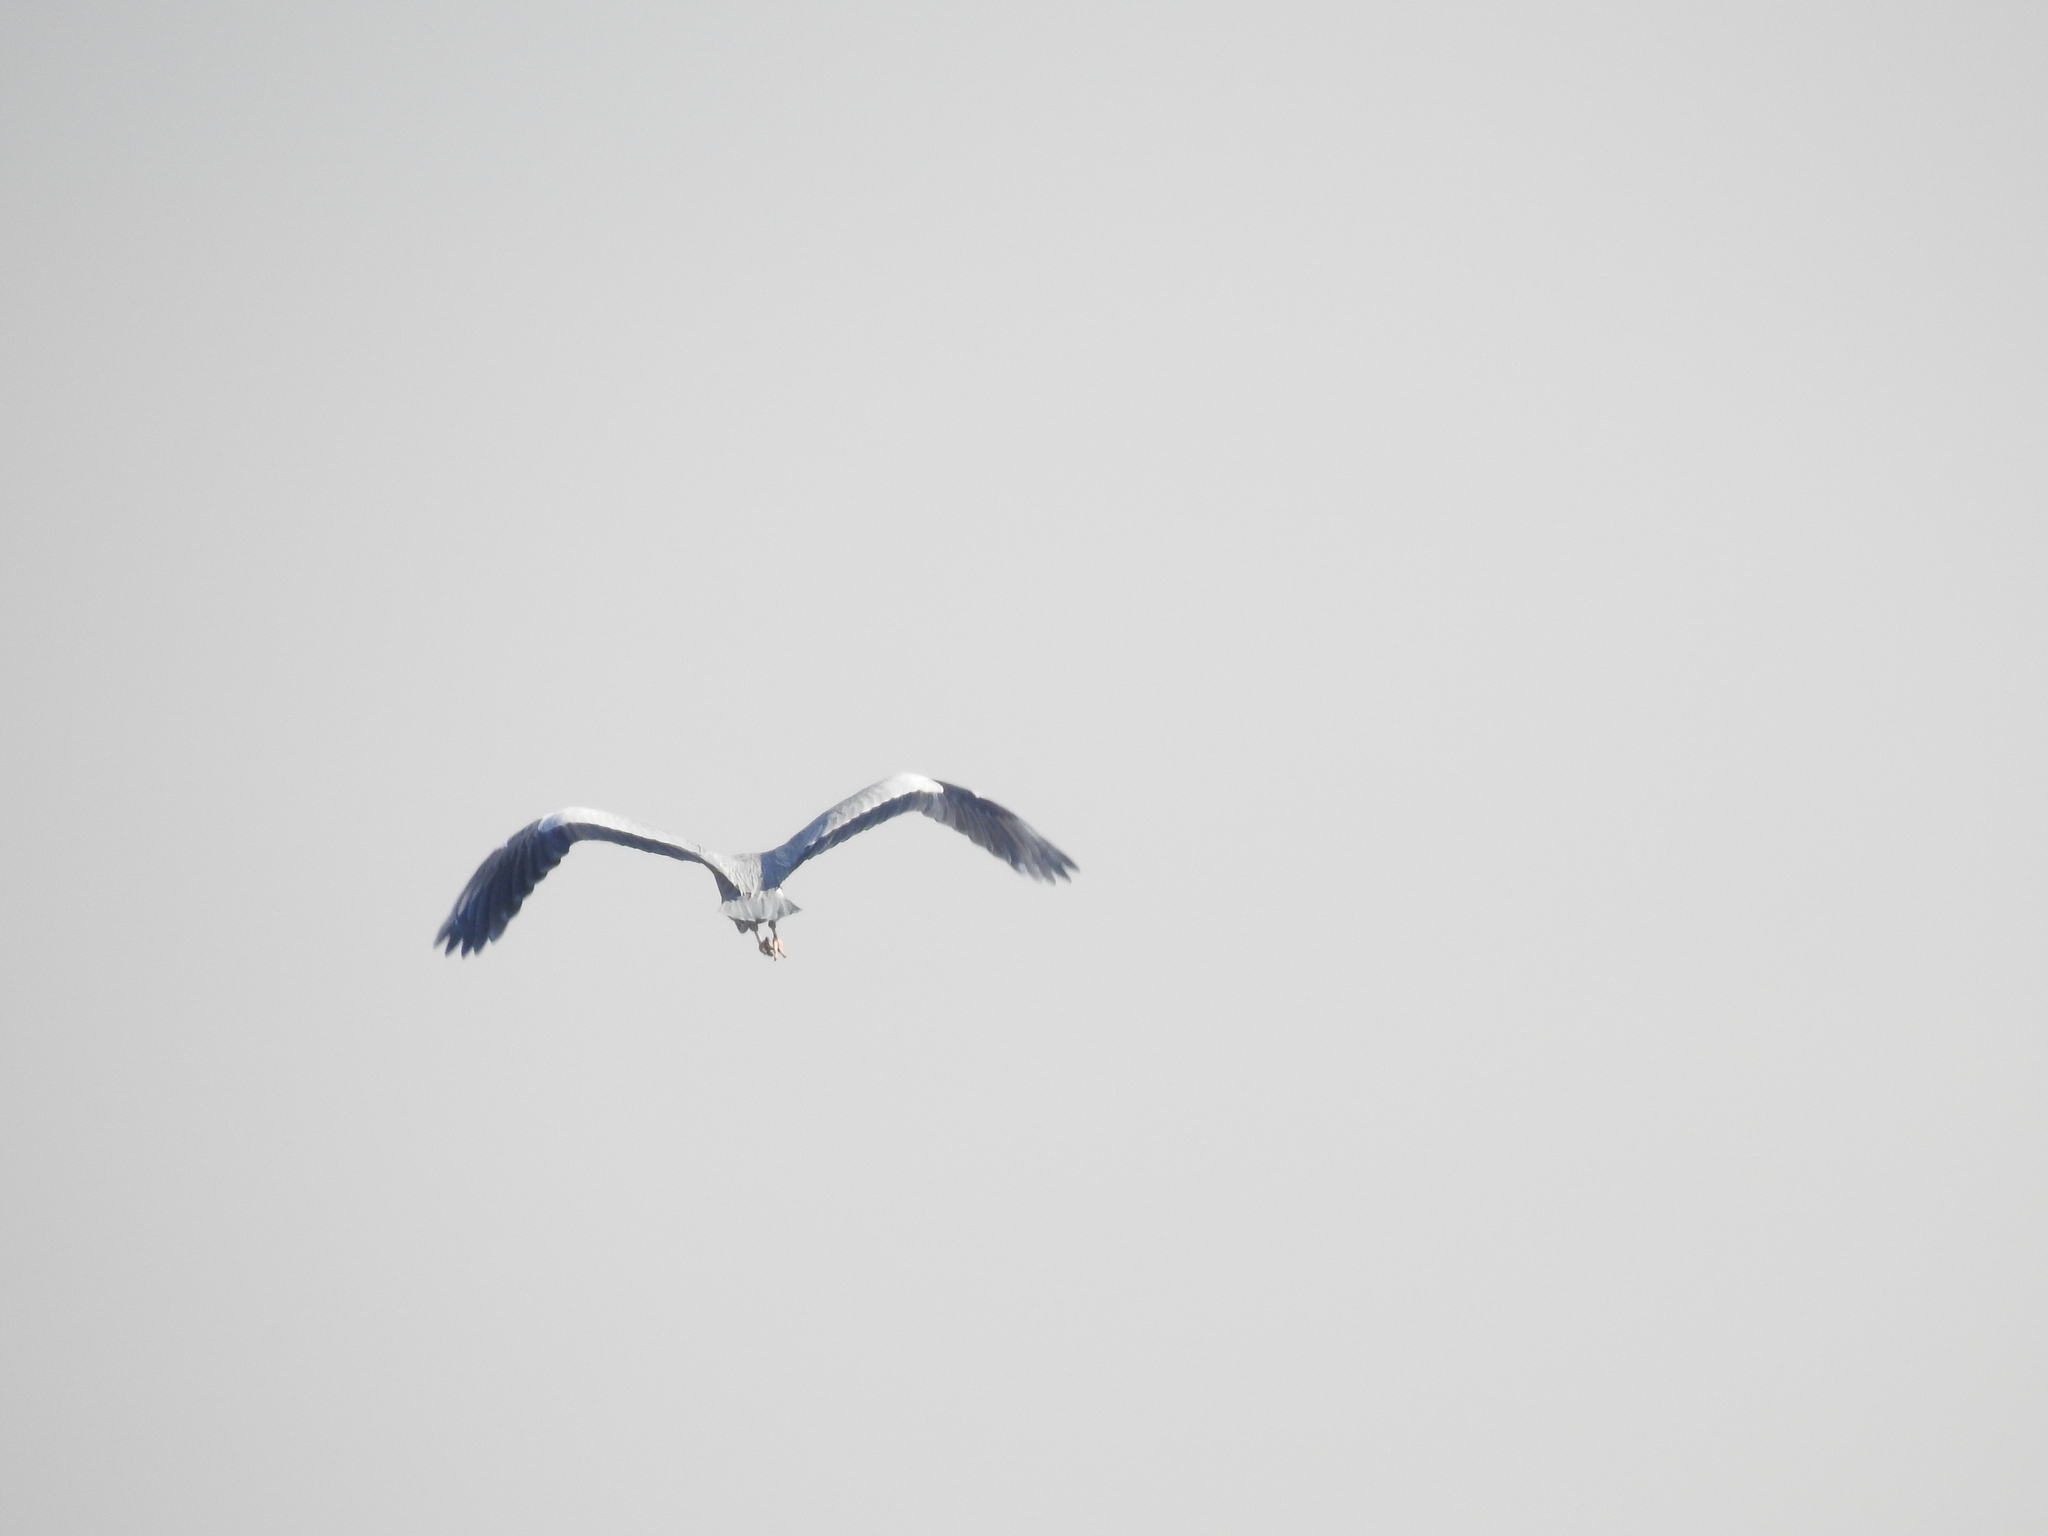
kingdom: Animalia
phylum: Chordata
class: Aves
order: Pelecaniformes
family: Ardeidae
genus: Ardea
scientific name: Ardea cinerea
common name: Grey heron
